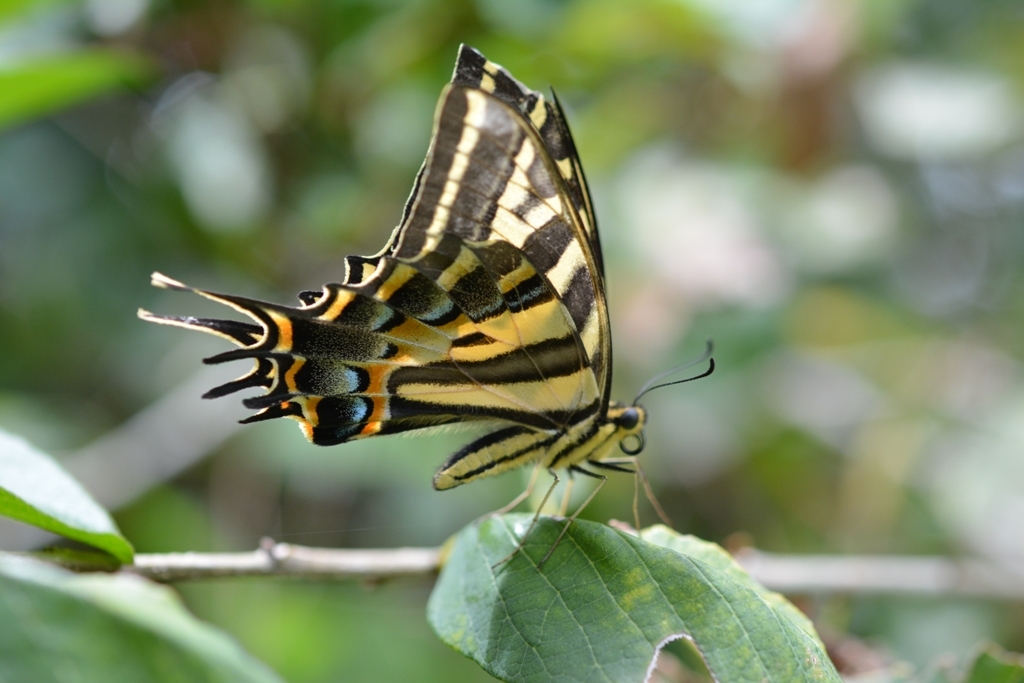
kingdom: Animalia
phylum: Arthropoda
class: Insecta
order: Lepidoptera
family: Papilionidae
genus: Papilio
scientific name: Papilio pilumnus
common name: Three-tailed tiger swallowtail
